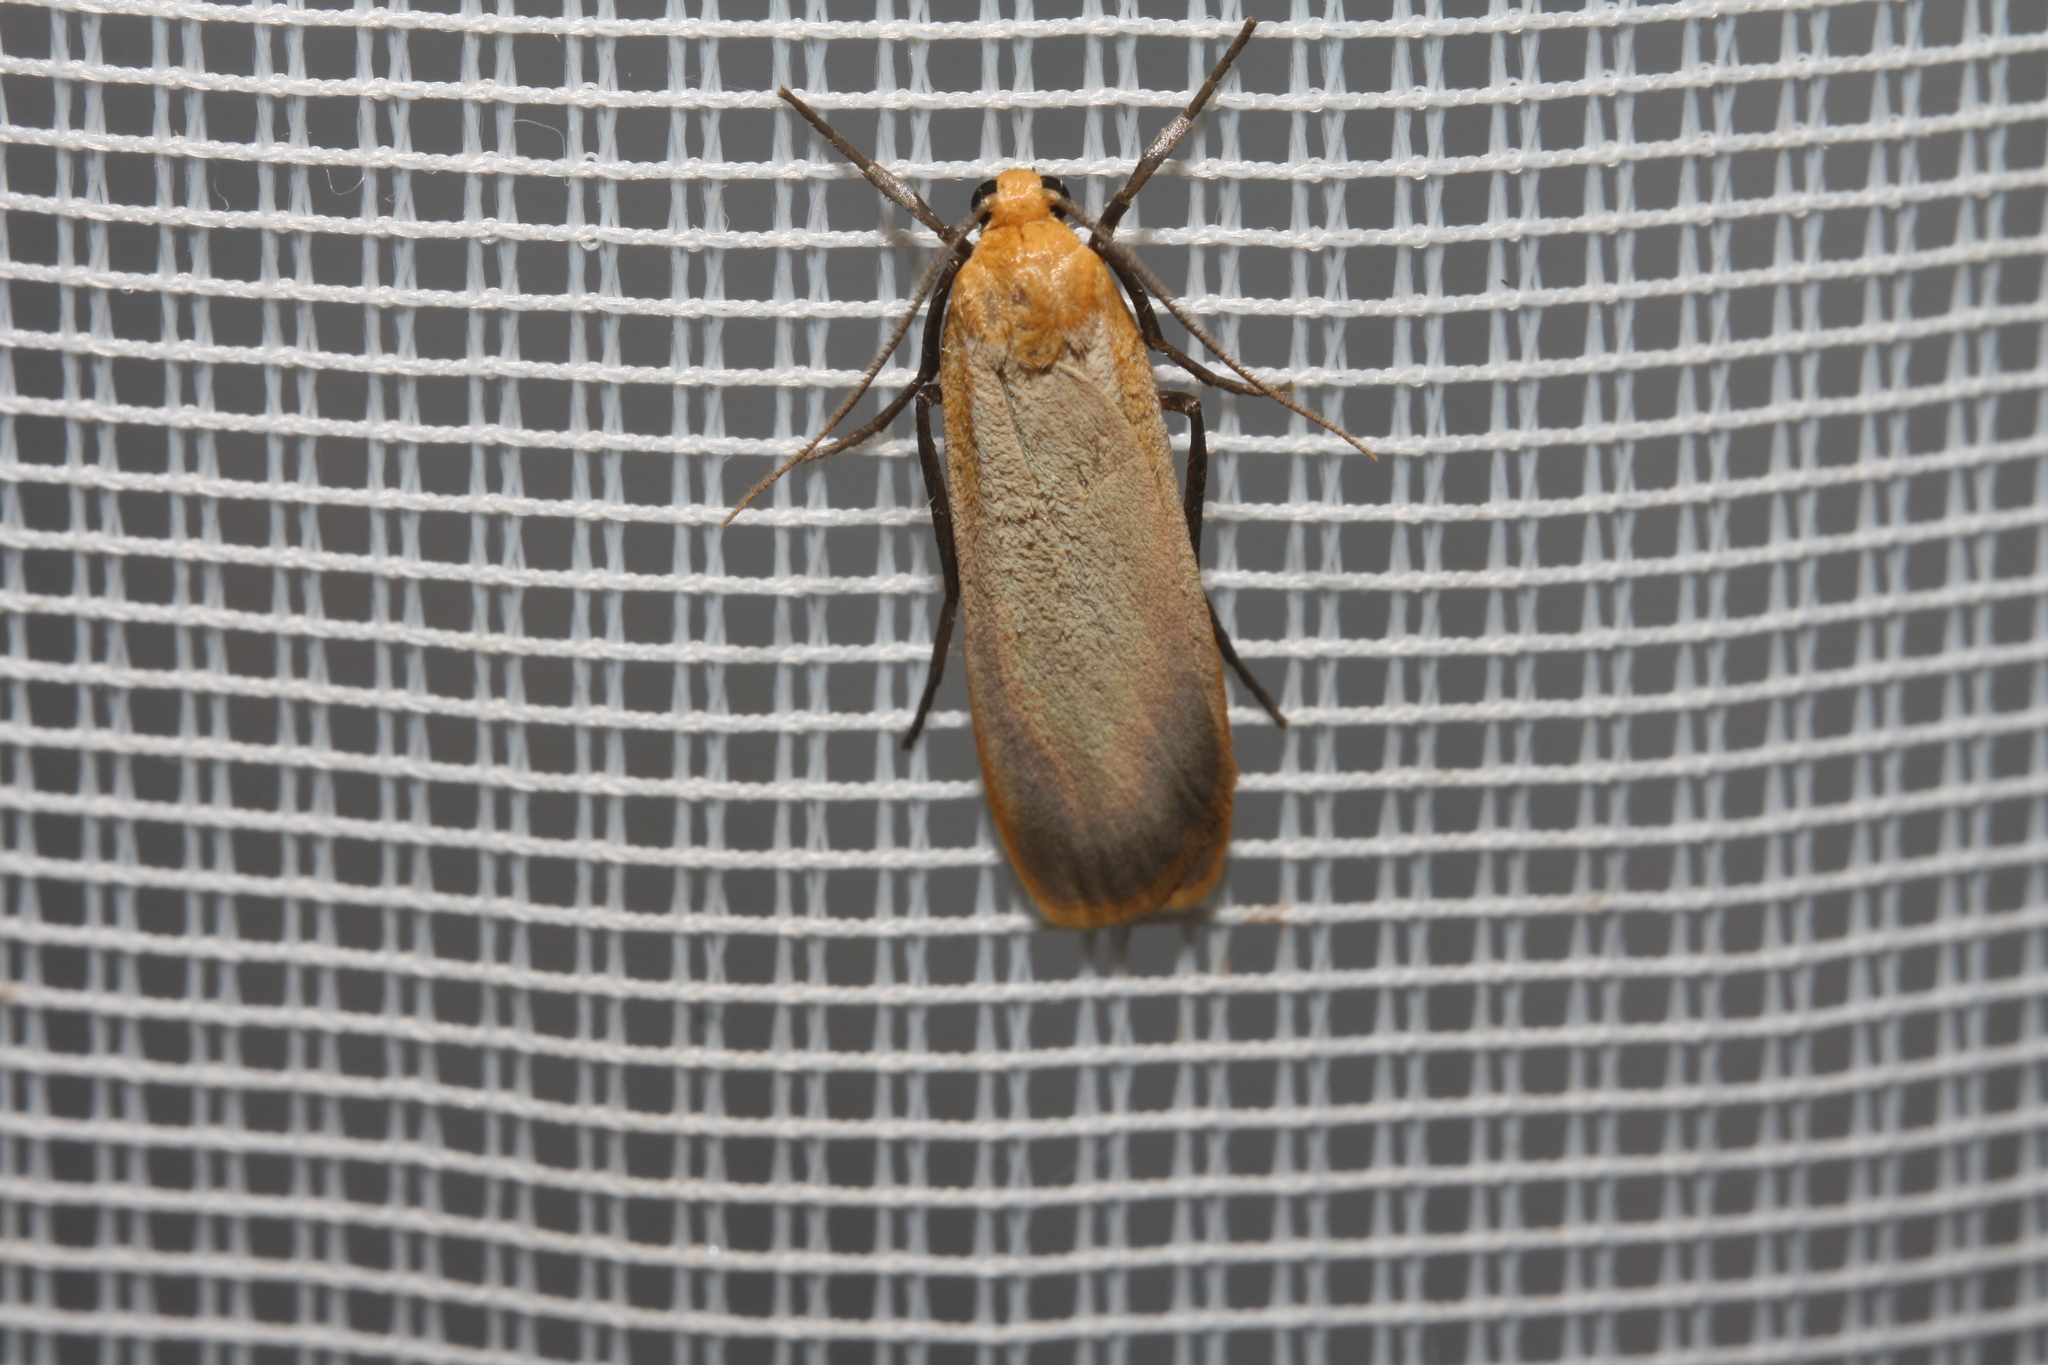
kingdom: Animalia
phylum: Arthropoda
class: Insecta
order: Lepidoptera
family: Erebidae
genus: Katha
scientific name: Katha depressa
